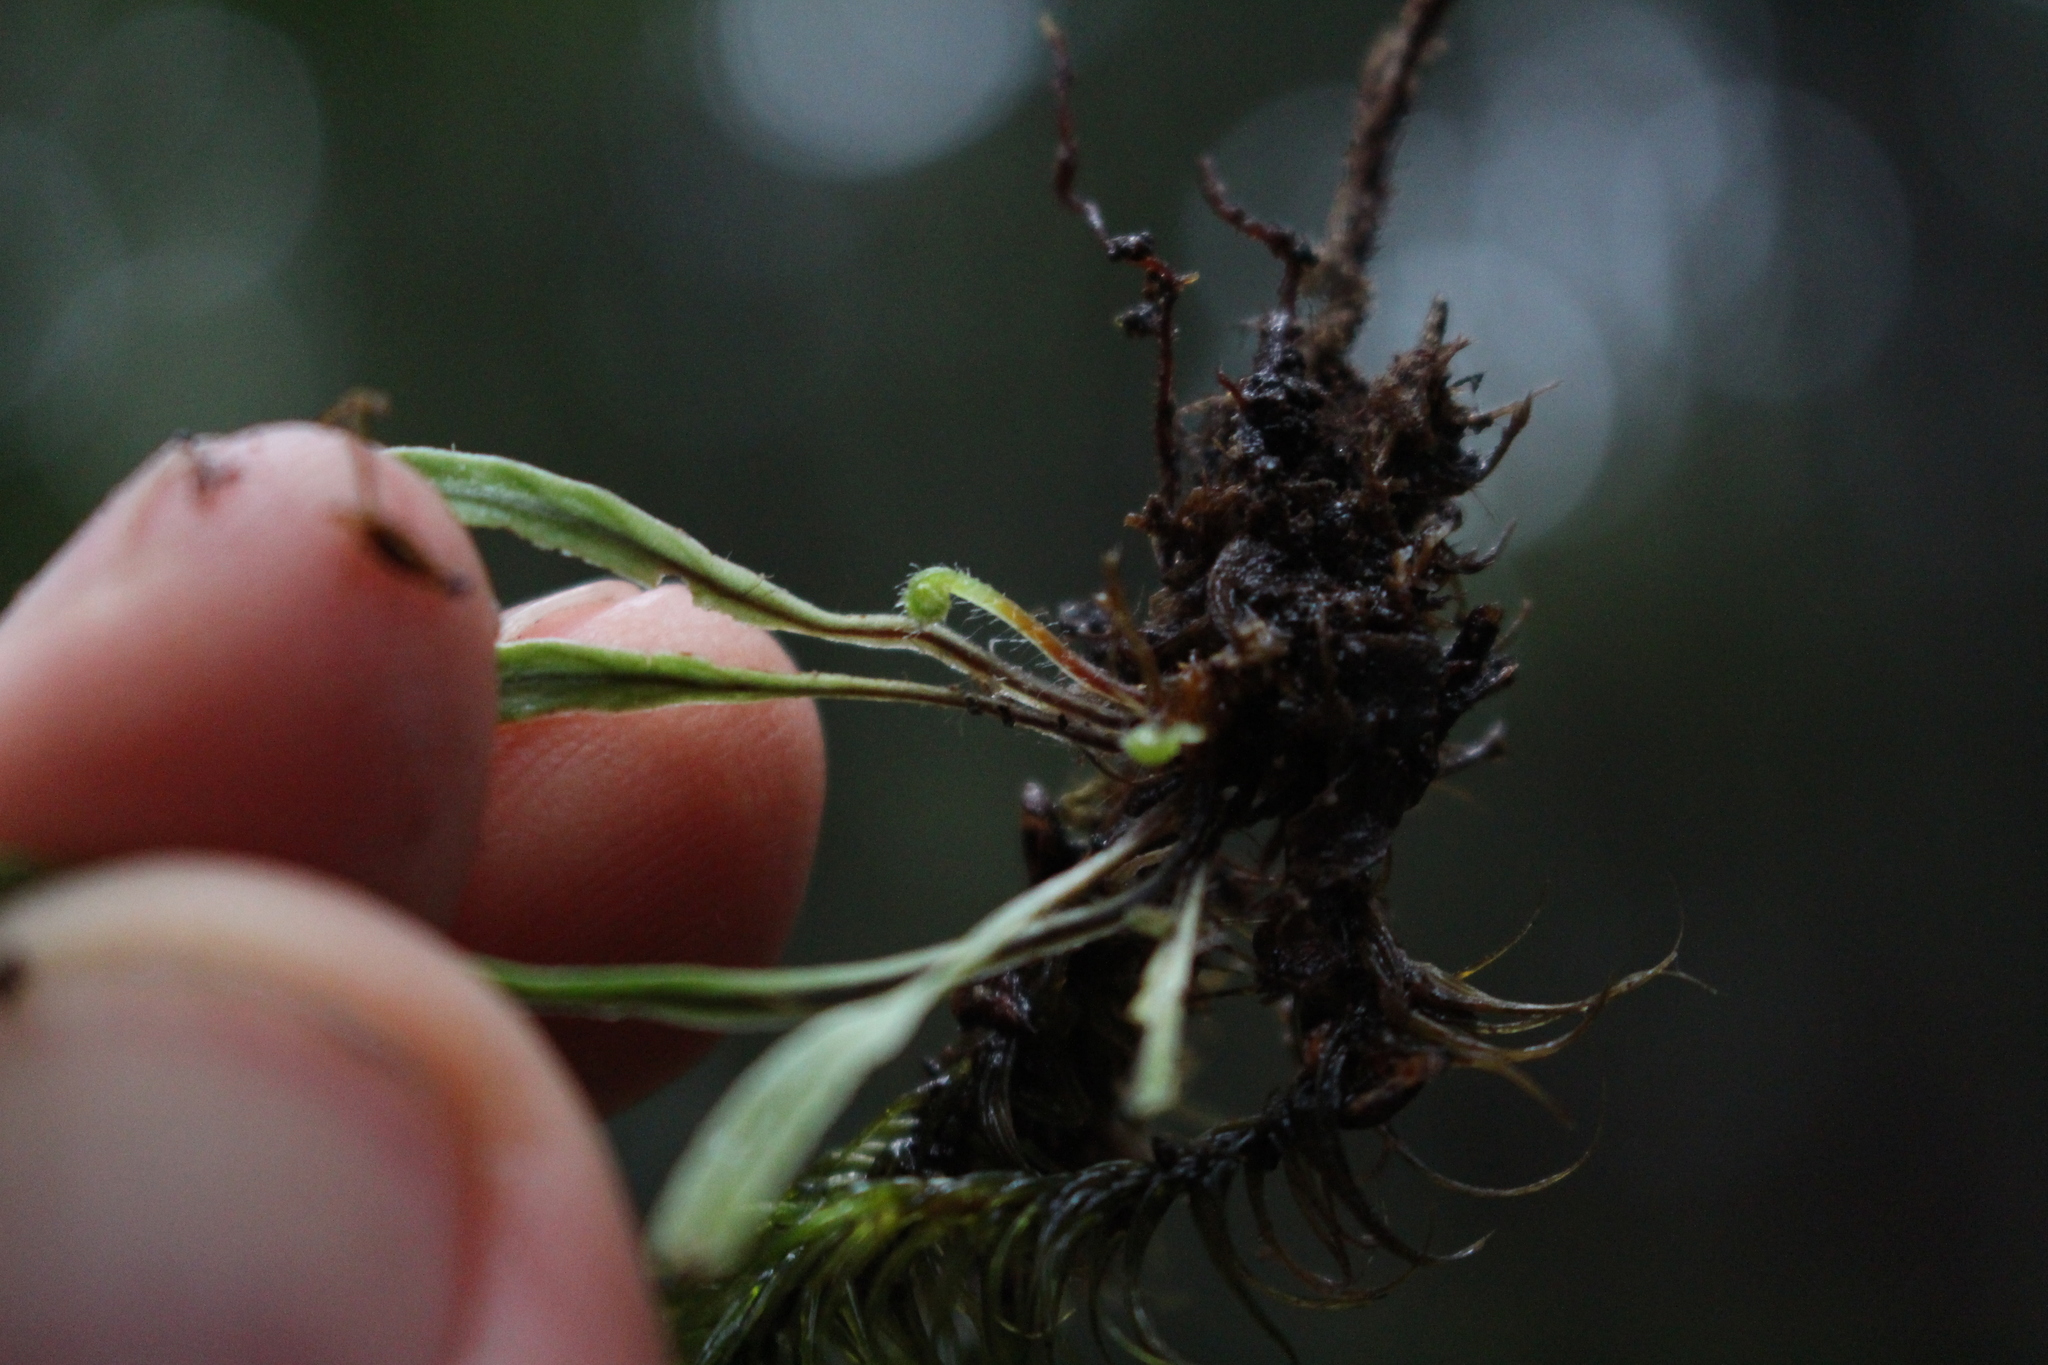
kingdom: Plantae
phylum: Tracheophyta
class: Polypodiopsida
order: Polypodiales
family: Polypodiaceae
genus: Notogrammitis
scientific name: Notogrammitis billardierei
